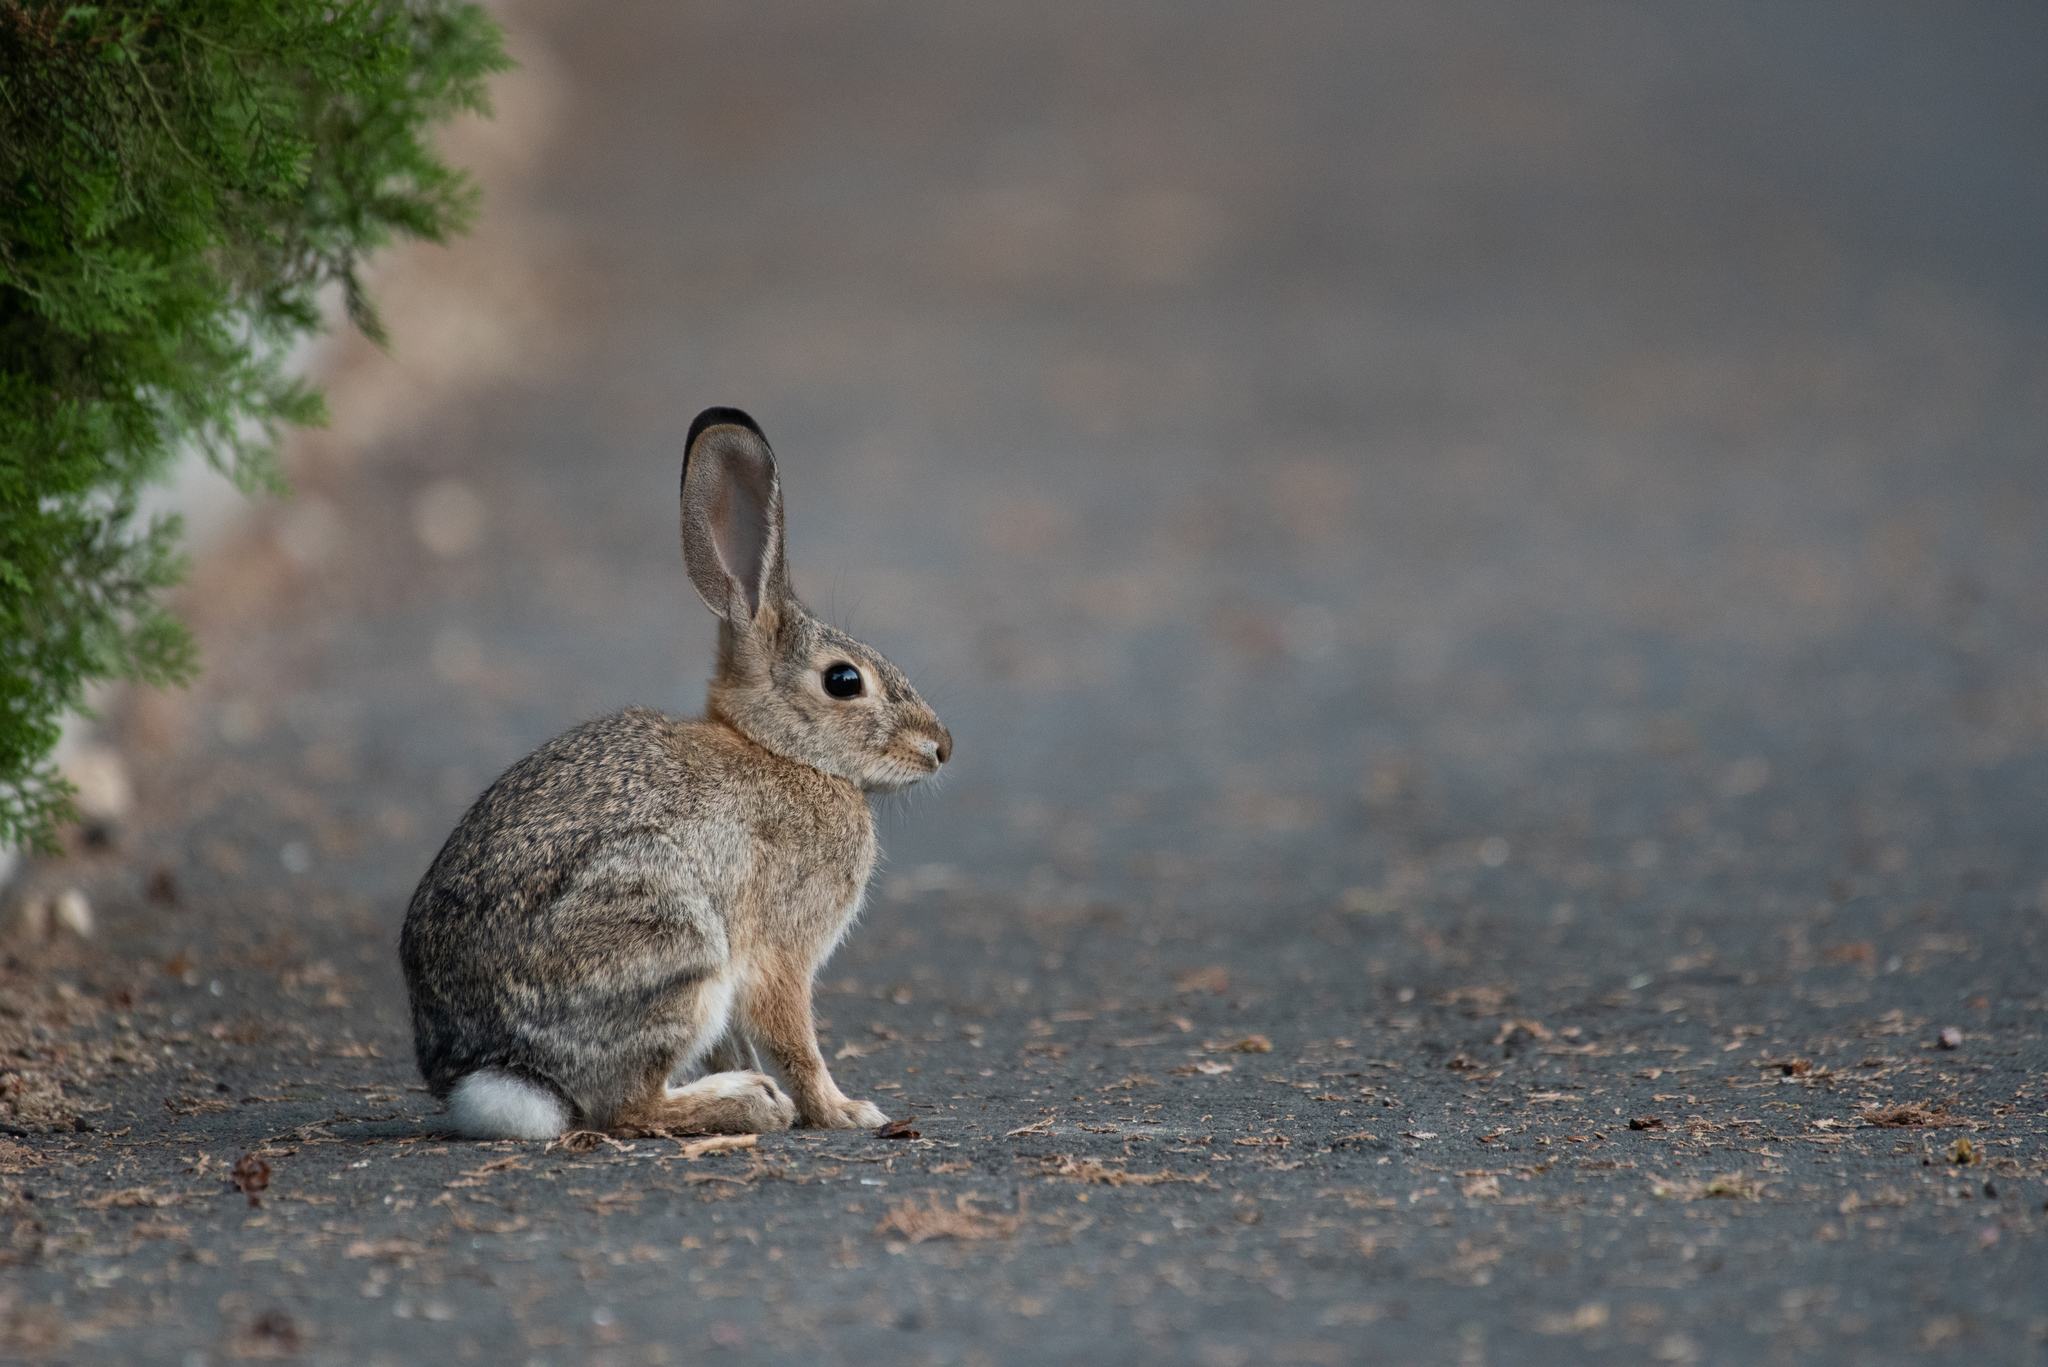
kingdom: Animalia
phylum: Chordata
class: Mammalia
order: Lagomorpha
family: Leporidae
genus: Sylvilagus
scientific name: Sylvilagus audubonii
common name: Desert cottontail
